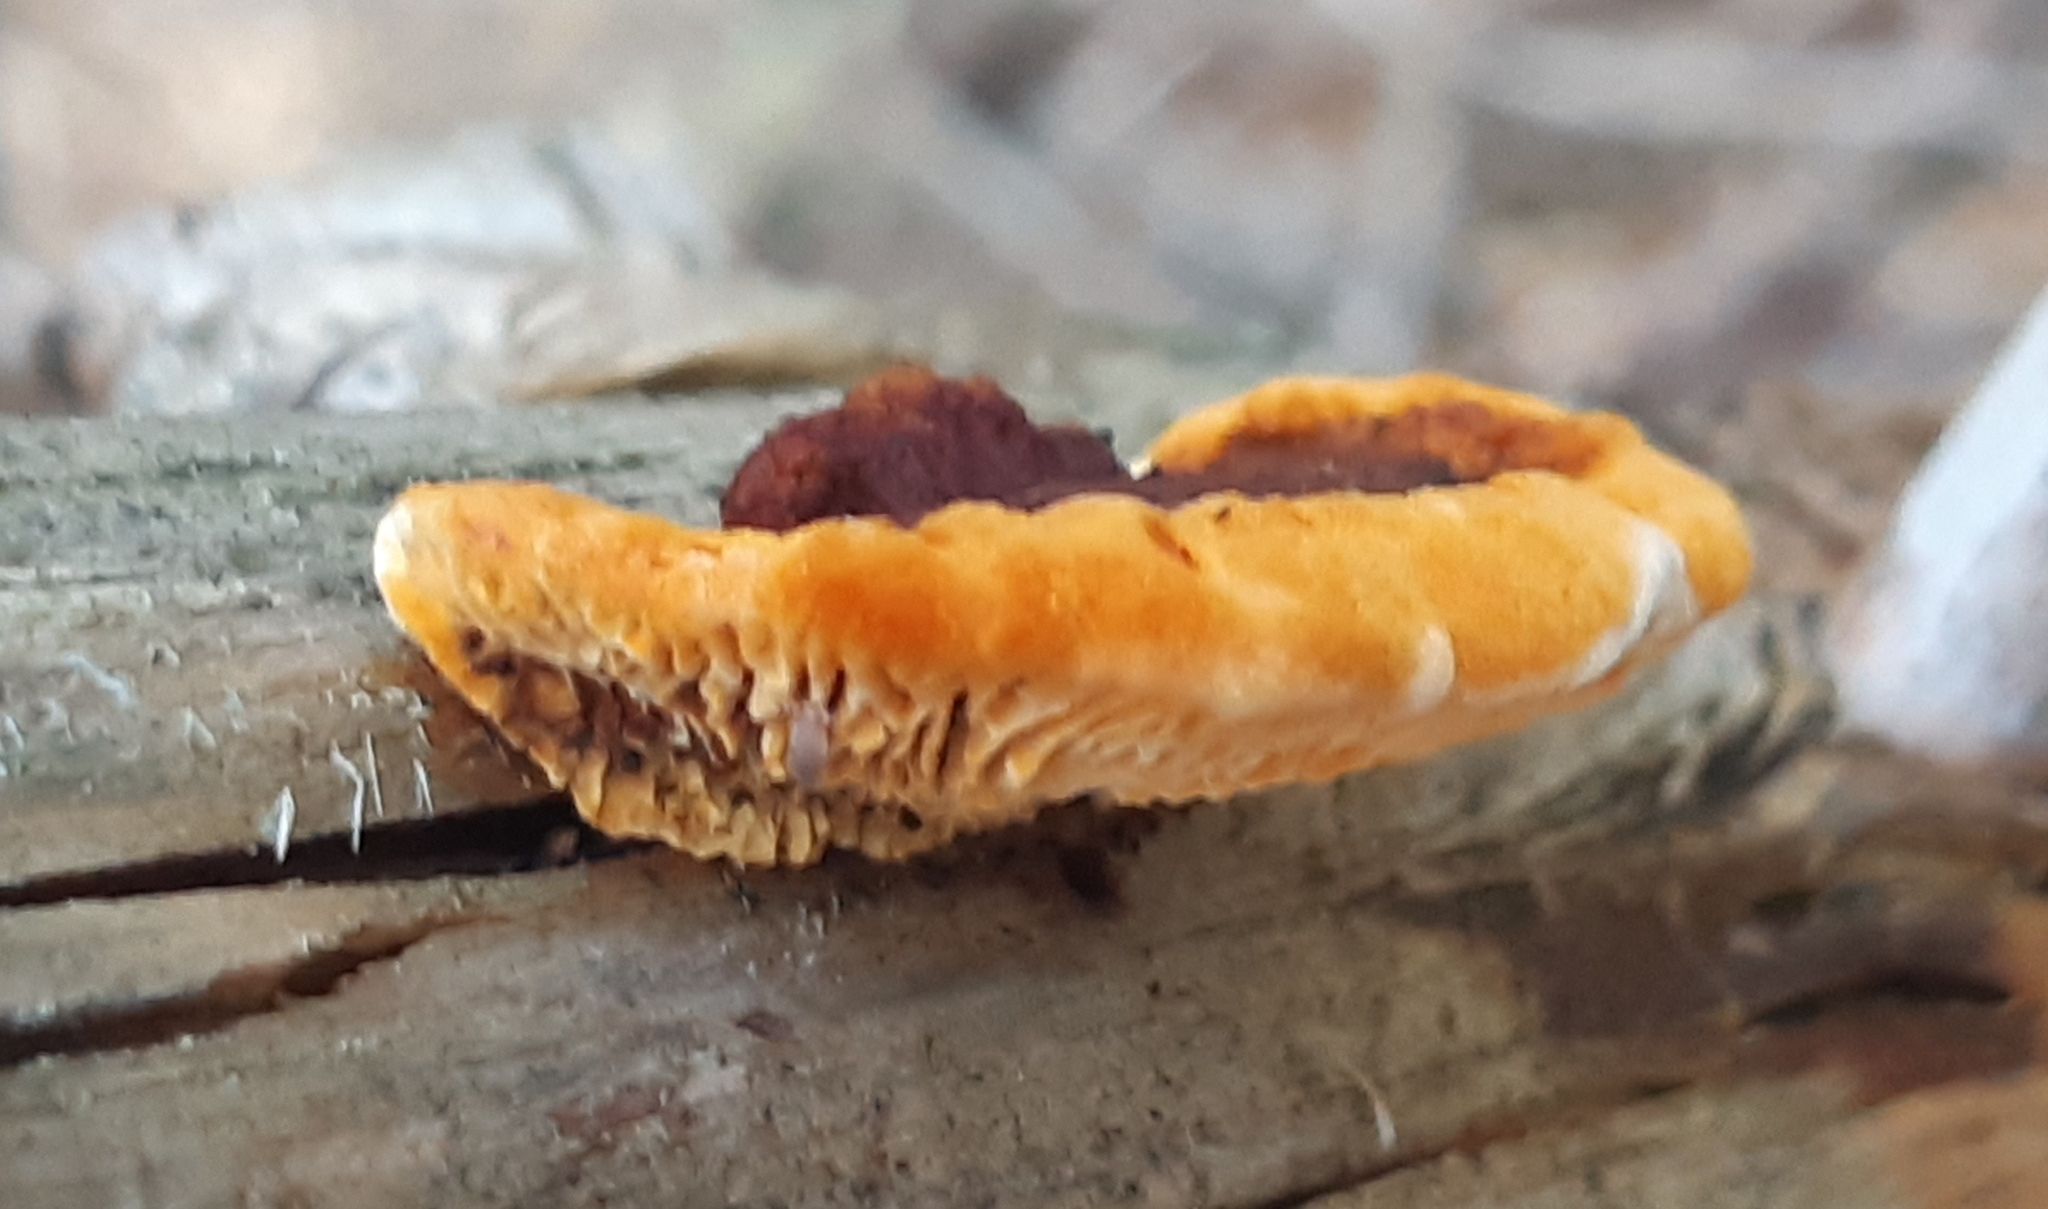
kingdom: Fungi
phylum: Basidiomycota
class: Agaricomycetes
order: Gloeophyllales
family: Gloeophyllaceae
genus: Gloeophyllum
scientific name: Gloeophyllum sepiarium
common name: Conifer mazegill
